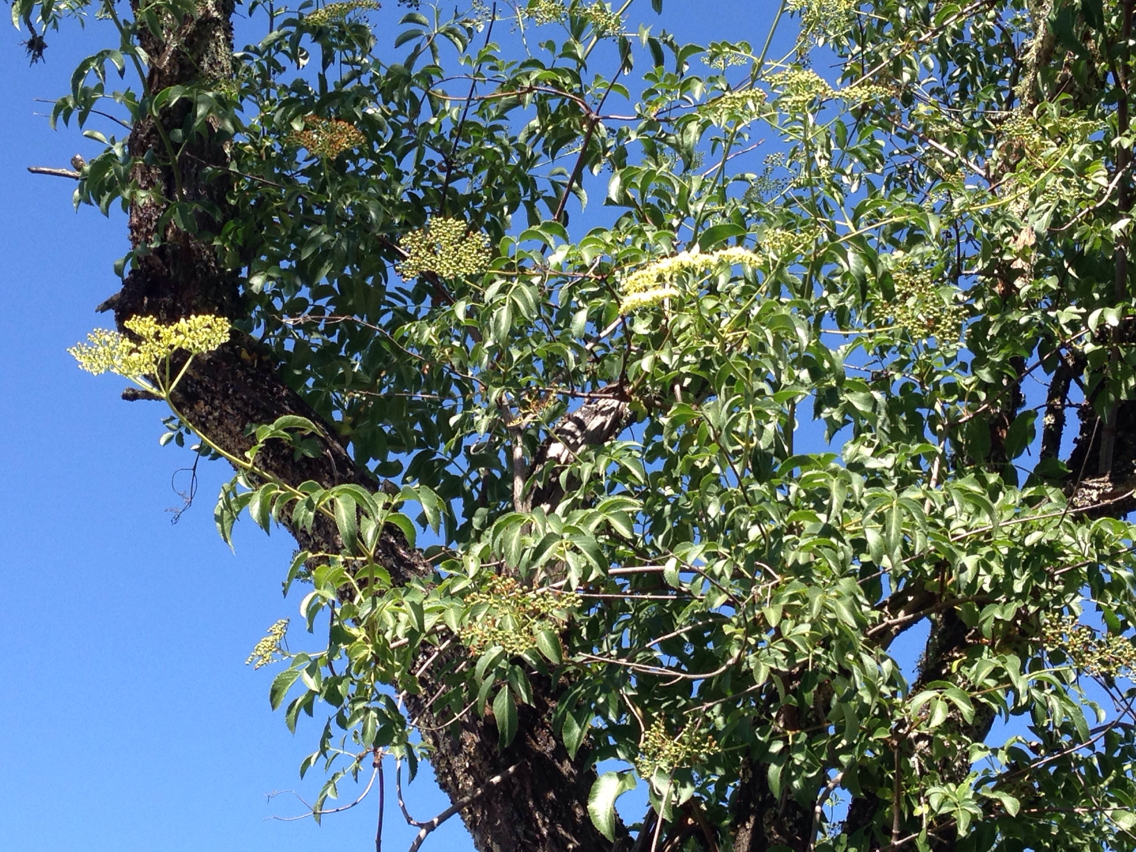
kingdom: Plantae
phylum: Tracheophyta
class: Magnoliopsida
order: Dipsacales
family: Viburnaceae
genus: Sambucus
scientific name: Sambucus cerulea
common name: Blue elder
